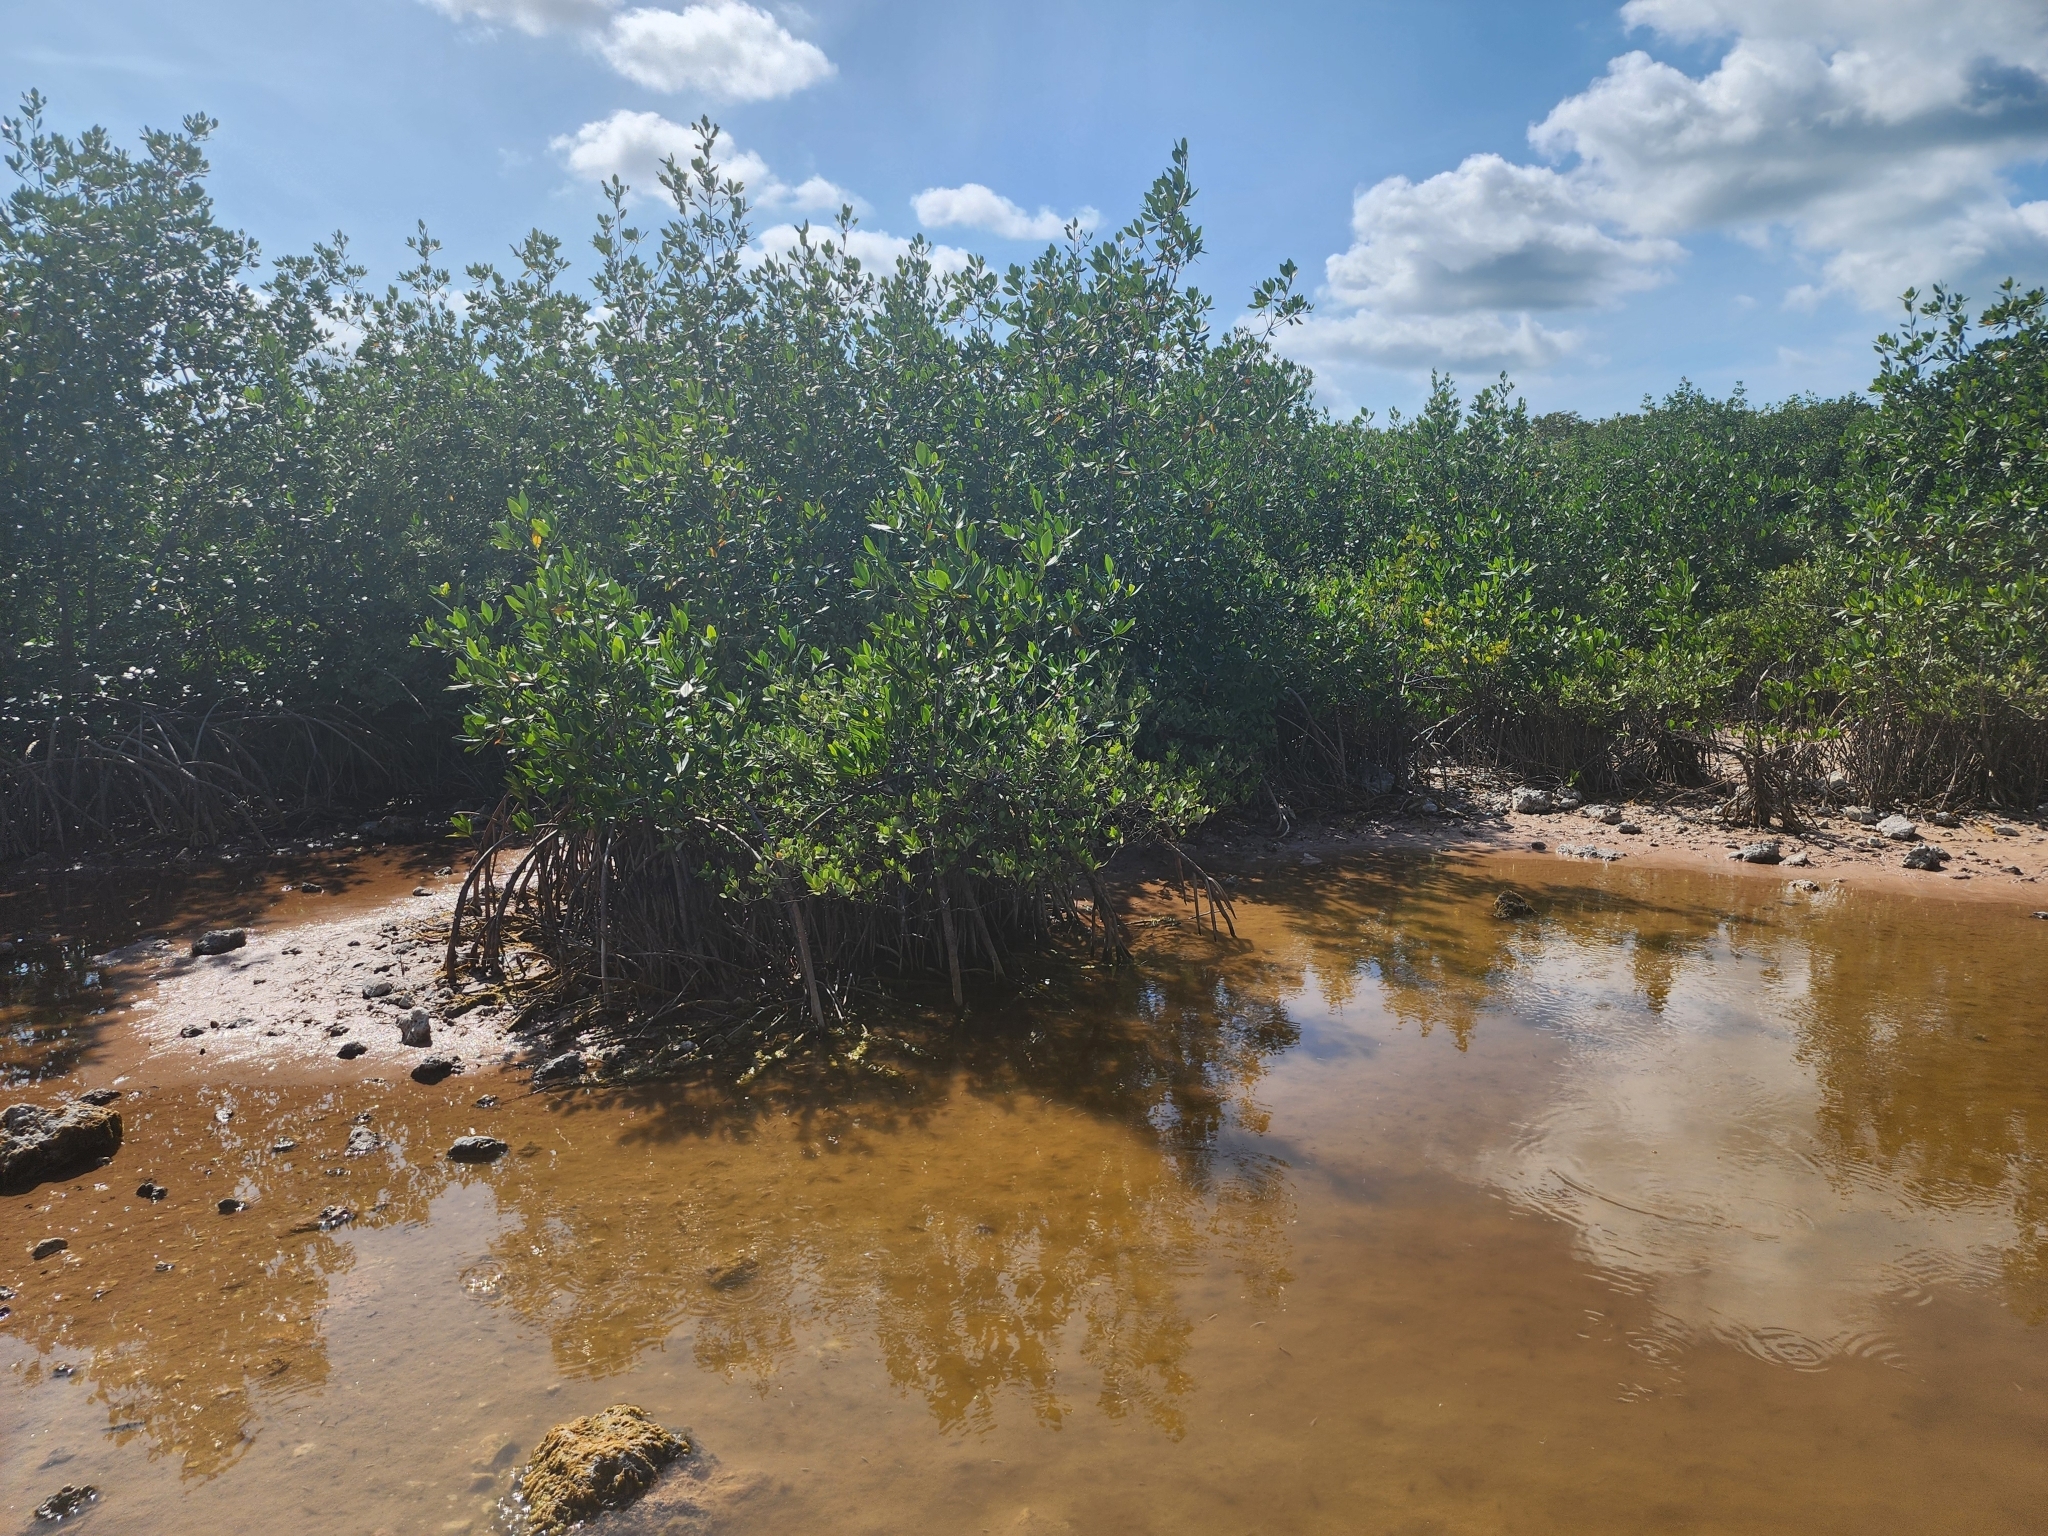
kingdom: Plantae
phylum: Tracheophyta
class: Magnoliopsida
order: Malpighiales
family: Rhizophoraceae
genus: Rhizophora
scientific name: Rhizophora mangle
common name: Red mangrove
